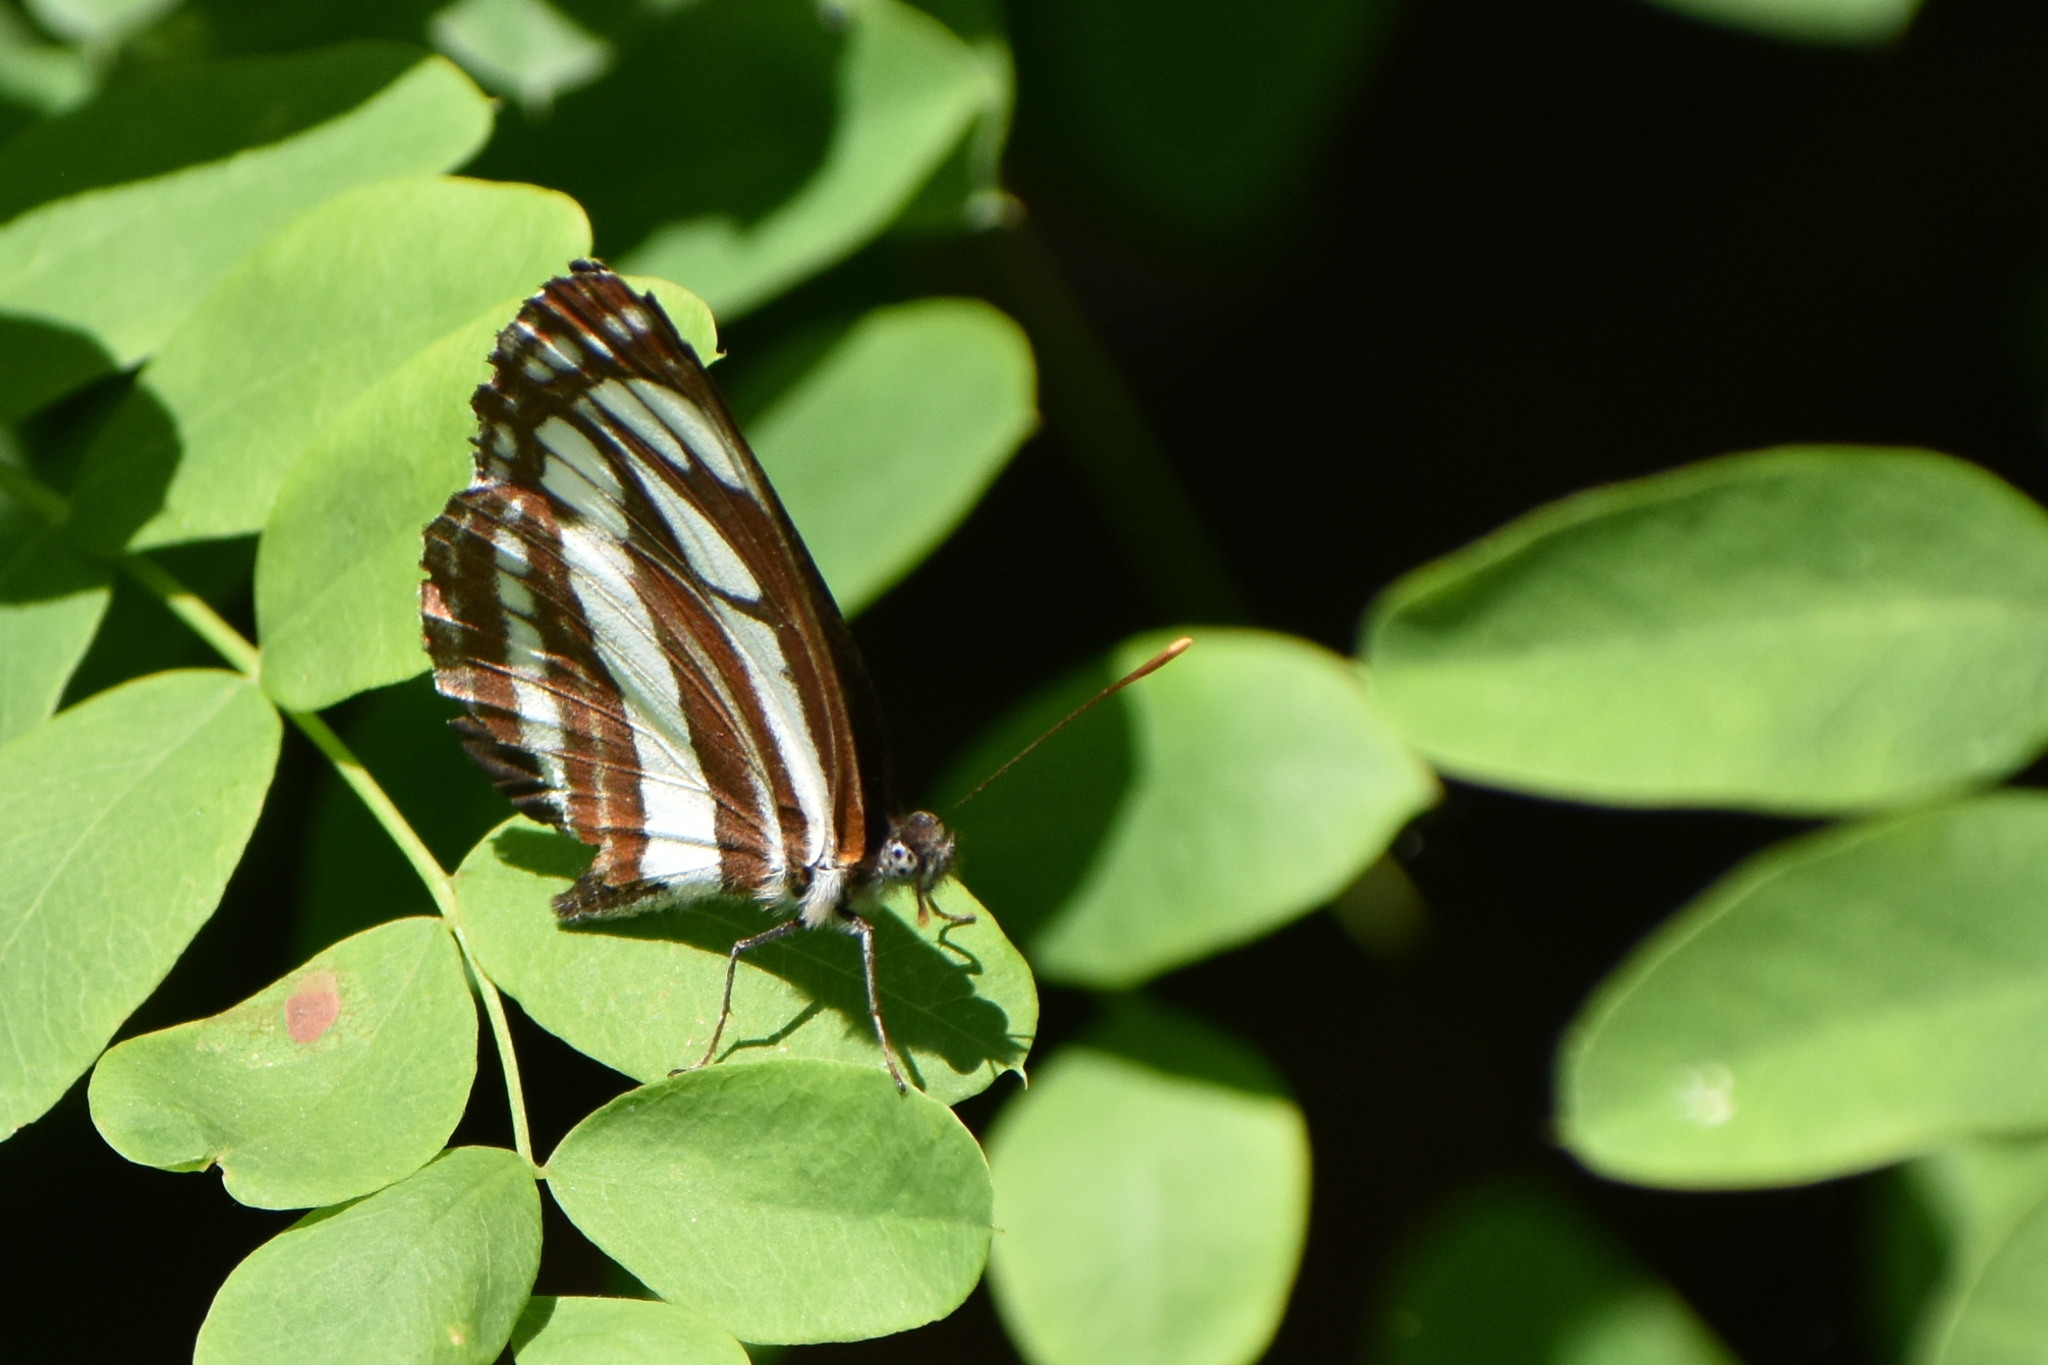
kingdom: Animalia
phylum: Arthropoda
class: Insecta
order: Lepidoptera
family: Nymphalidae
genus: Neptis
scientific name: Neptis sappho
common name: Common glider
